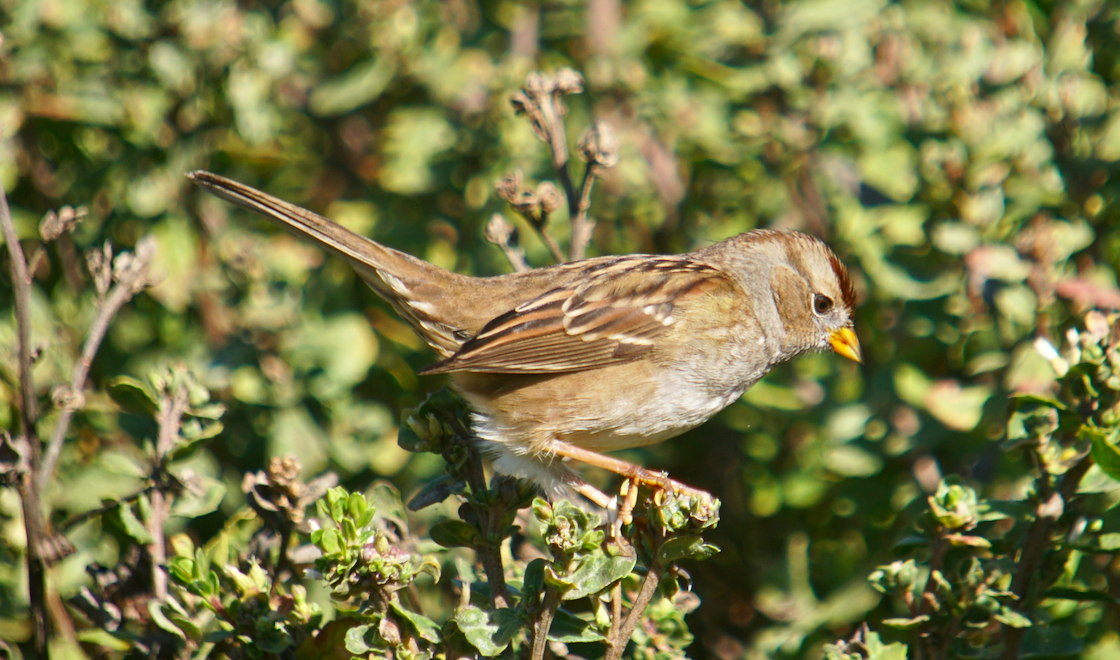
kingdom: Animalia
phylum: Chordata
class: Aves
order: Passeriformes
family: Passerellidae
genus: Zonotrichia
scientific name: Zonotrichia leucophrys
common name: White-crowned sparrow
